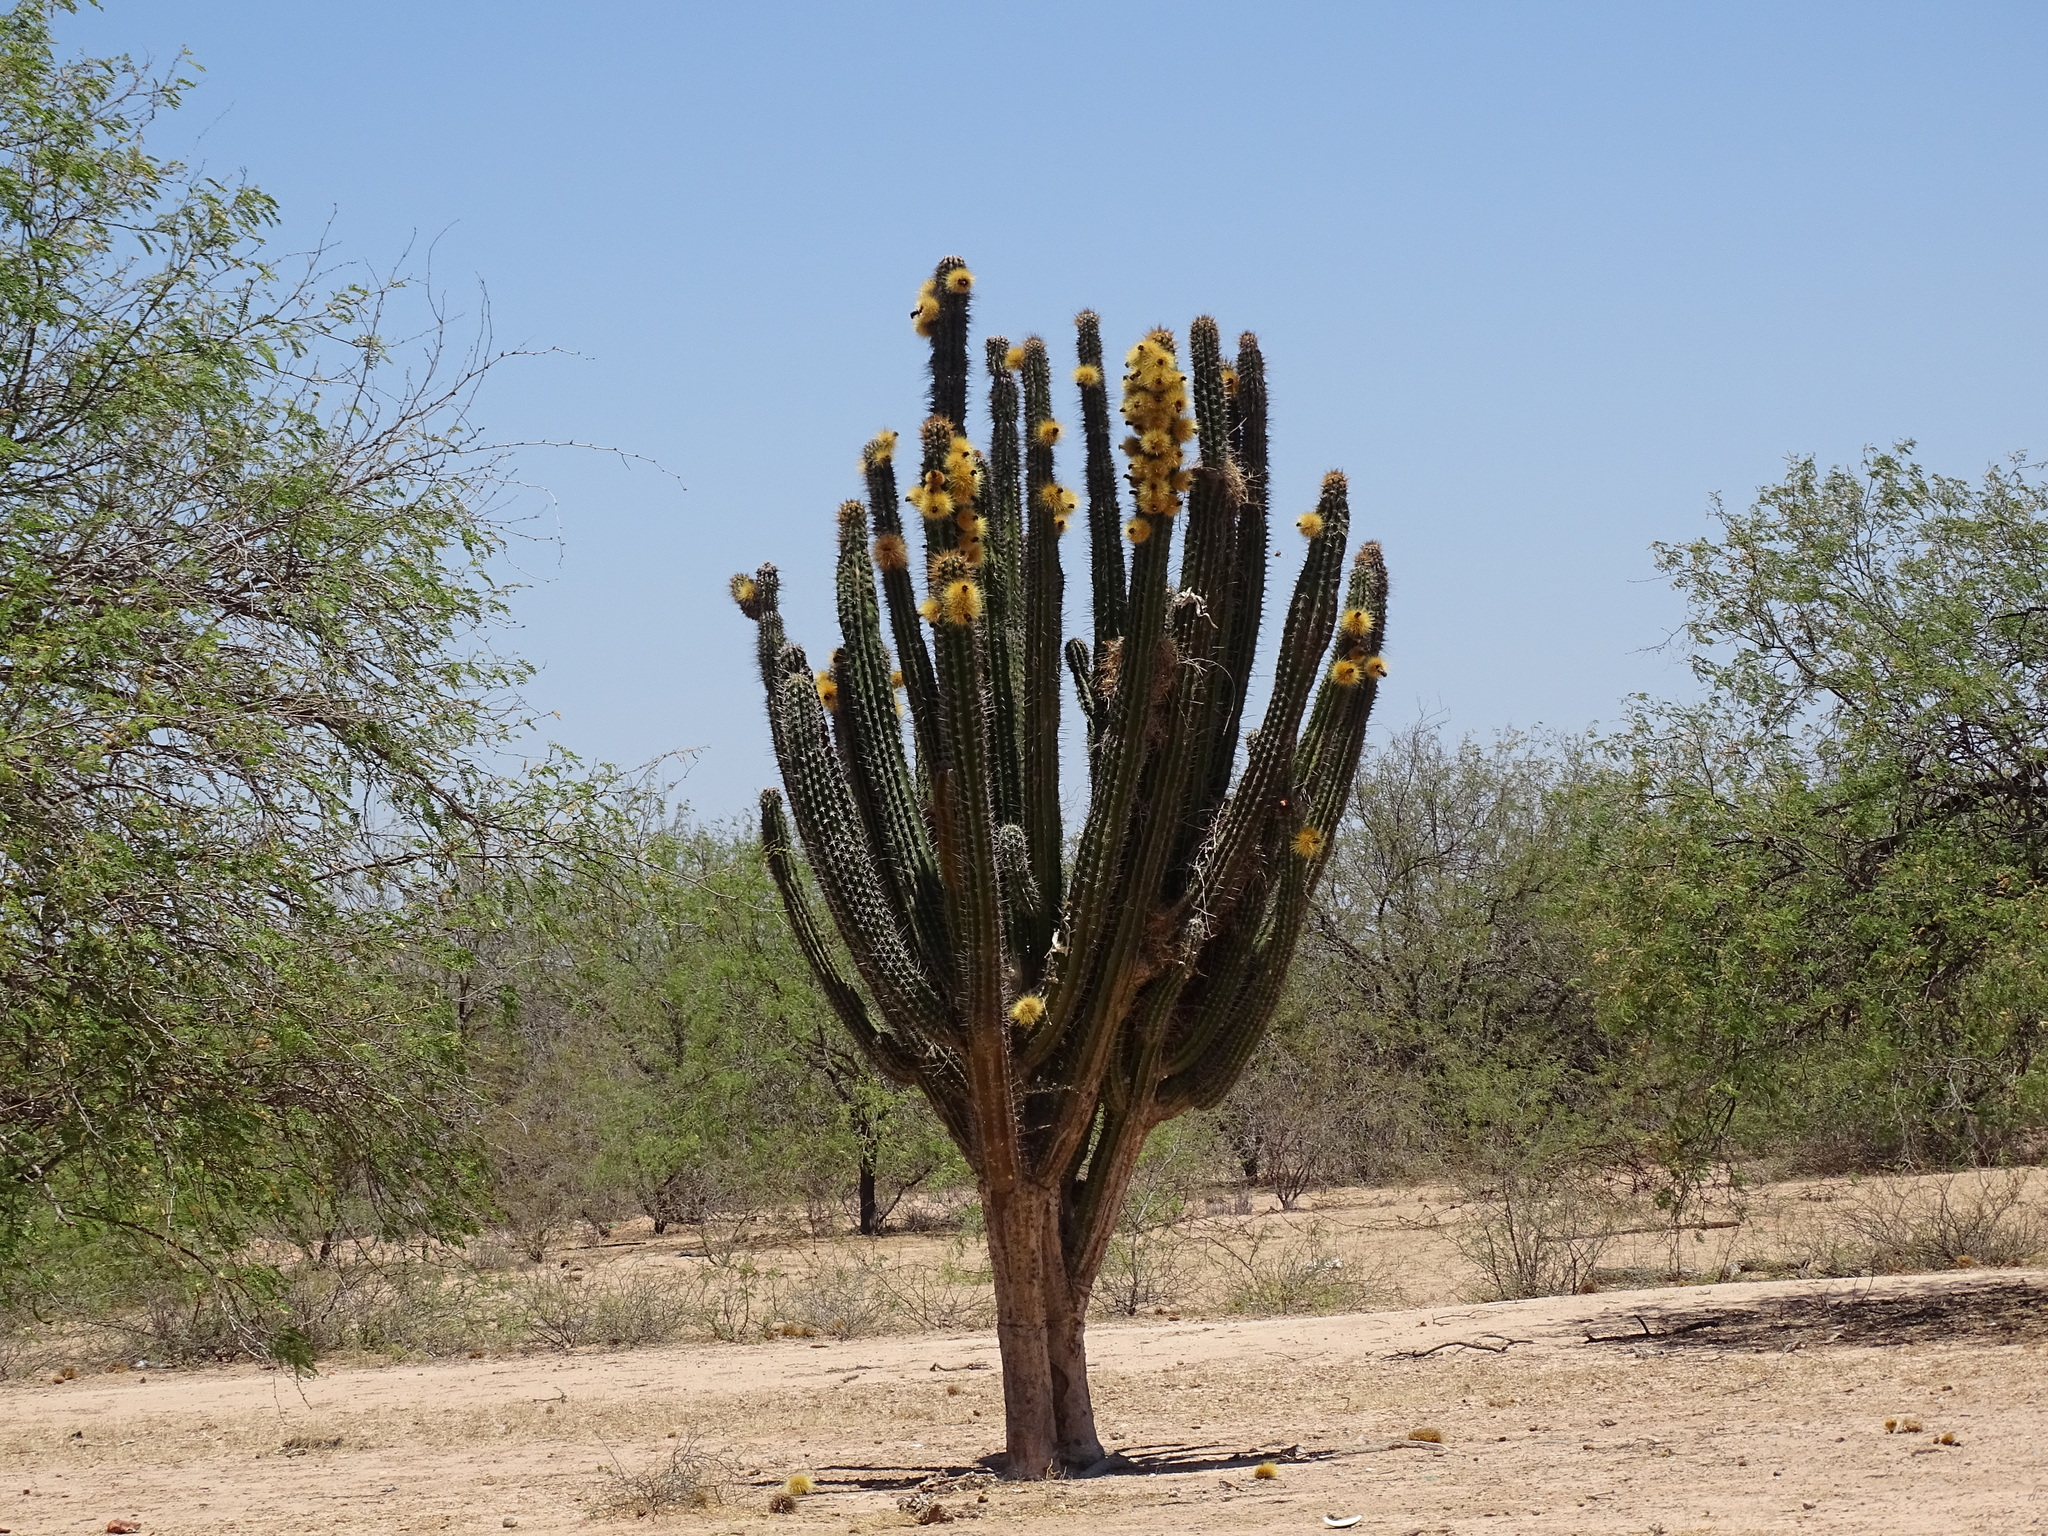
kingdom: Plantae
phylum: Tracheophyta
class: Magnoliopsida
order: Caryophyllales
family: Cactaceae
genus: Pachycereus
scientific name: Pachycereus pecten-aboriginum
